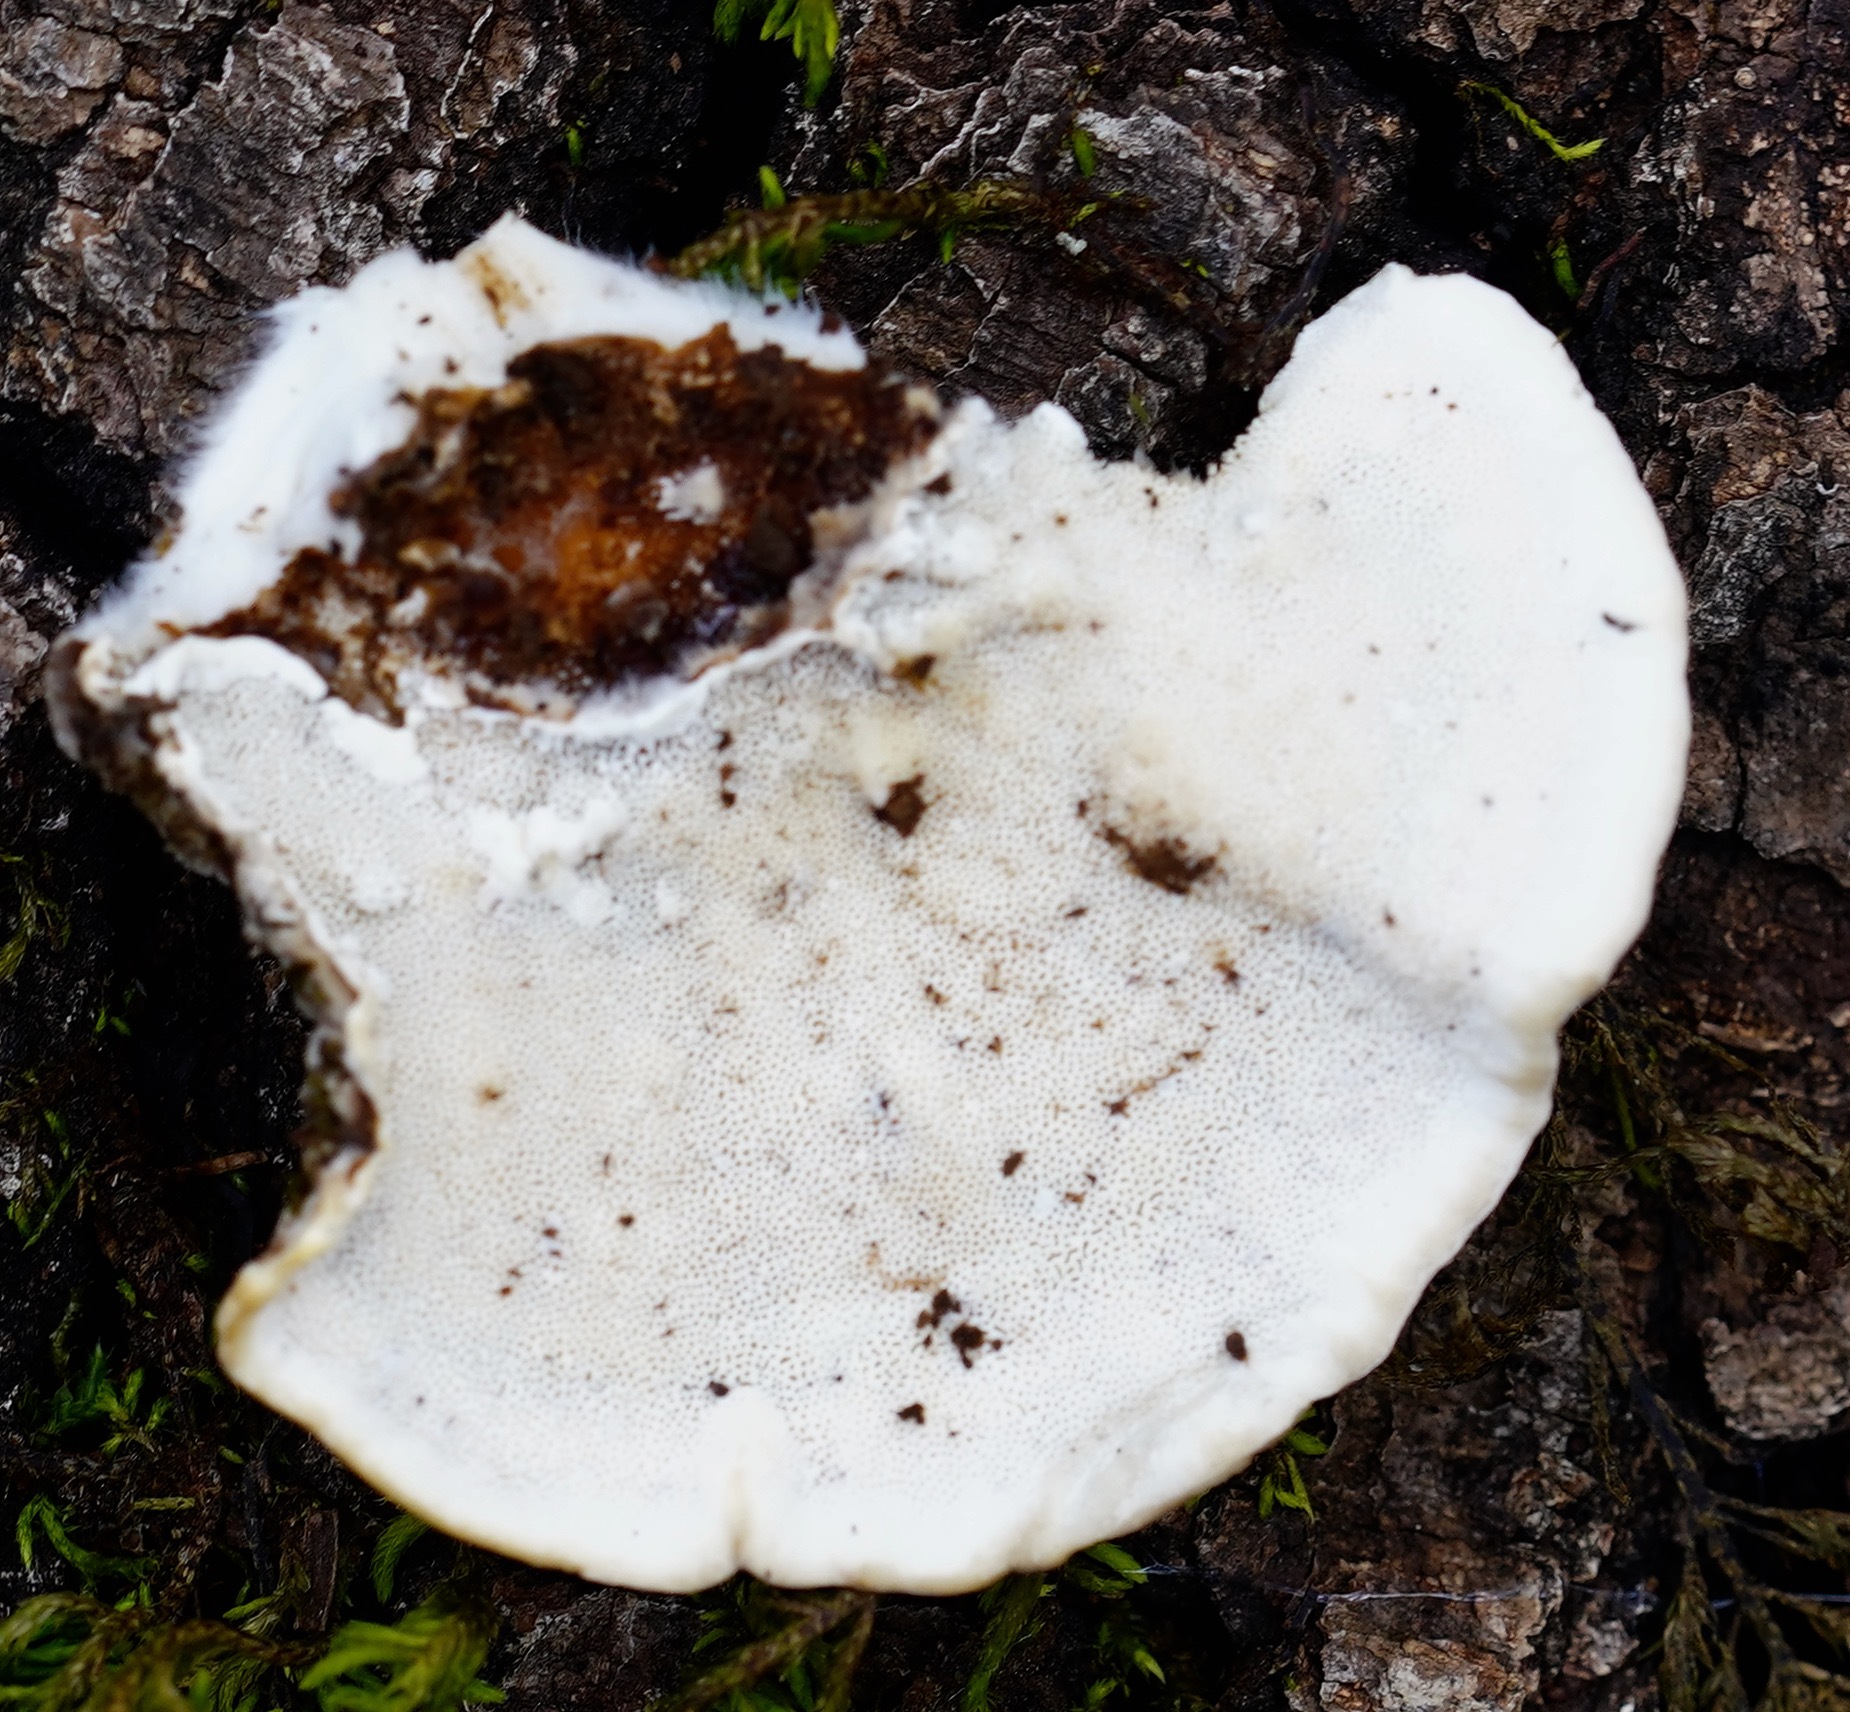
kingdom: Fungi
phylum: Basidiomycota
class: Agaricomycetes
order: Polyporales
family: Polyporaceae
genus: Trametes
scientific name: Trametes versicolor
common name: Turkeytail
